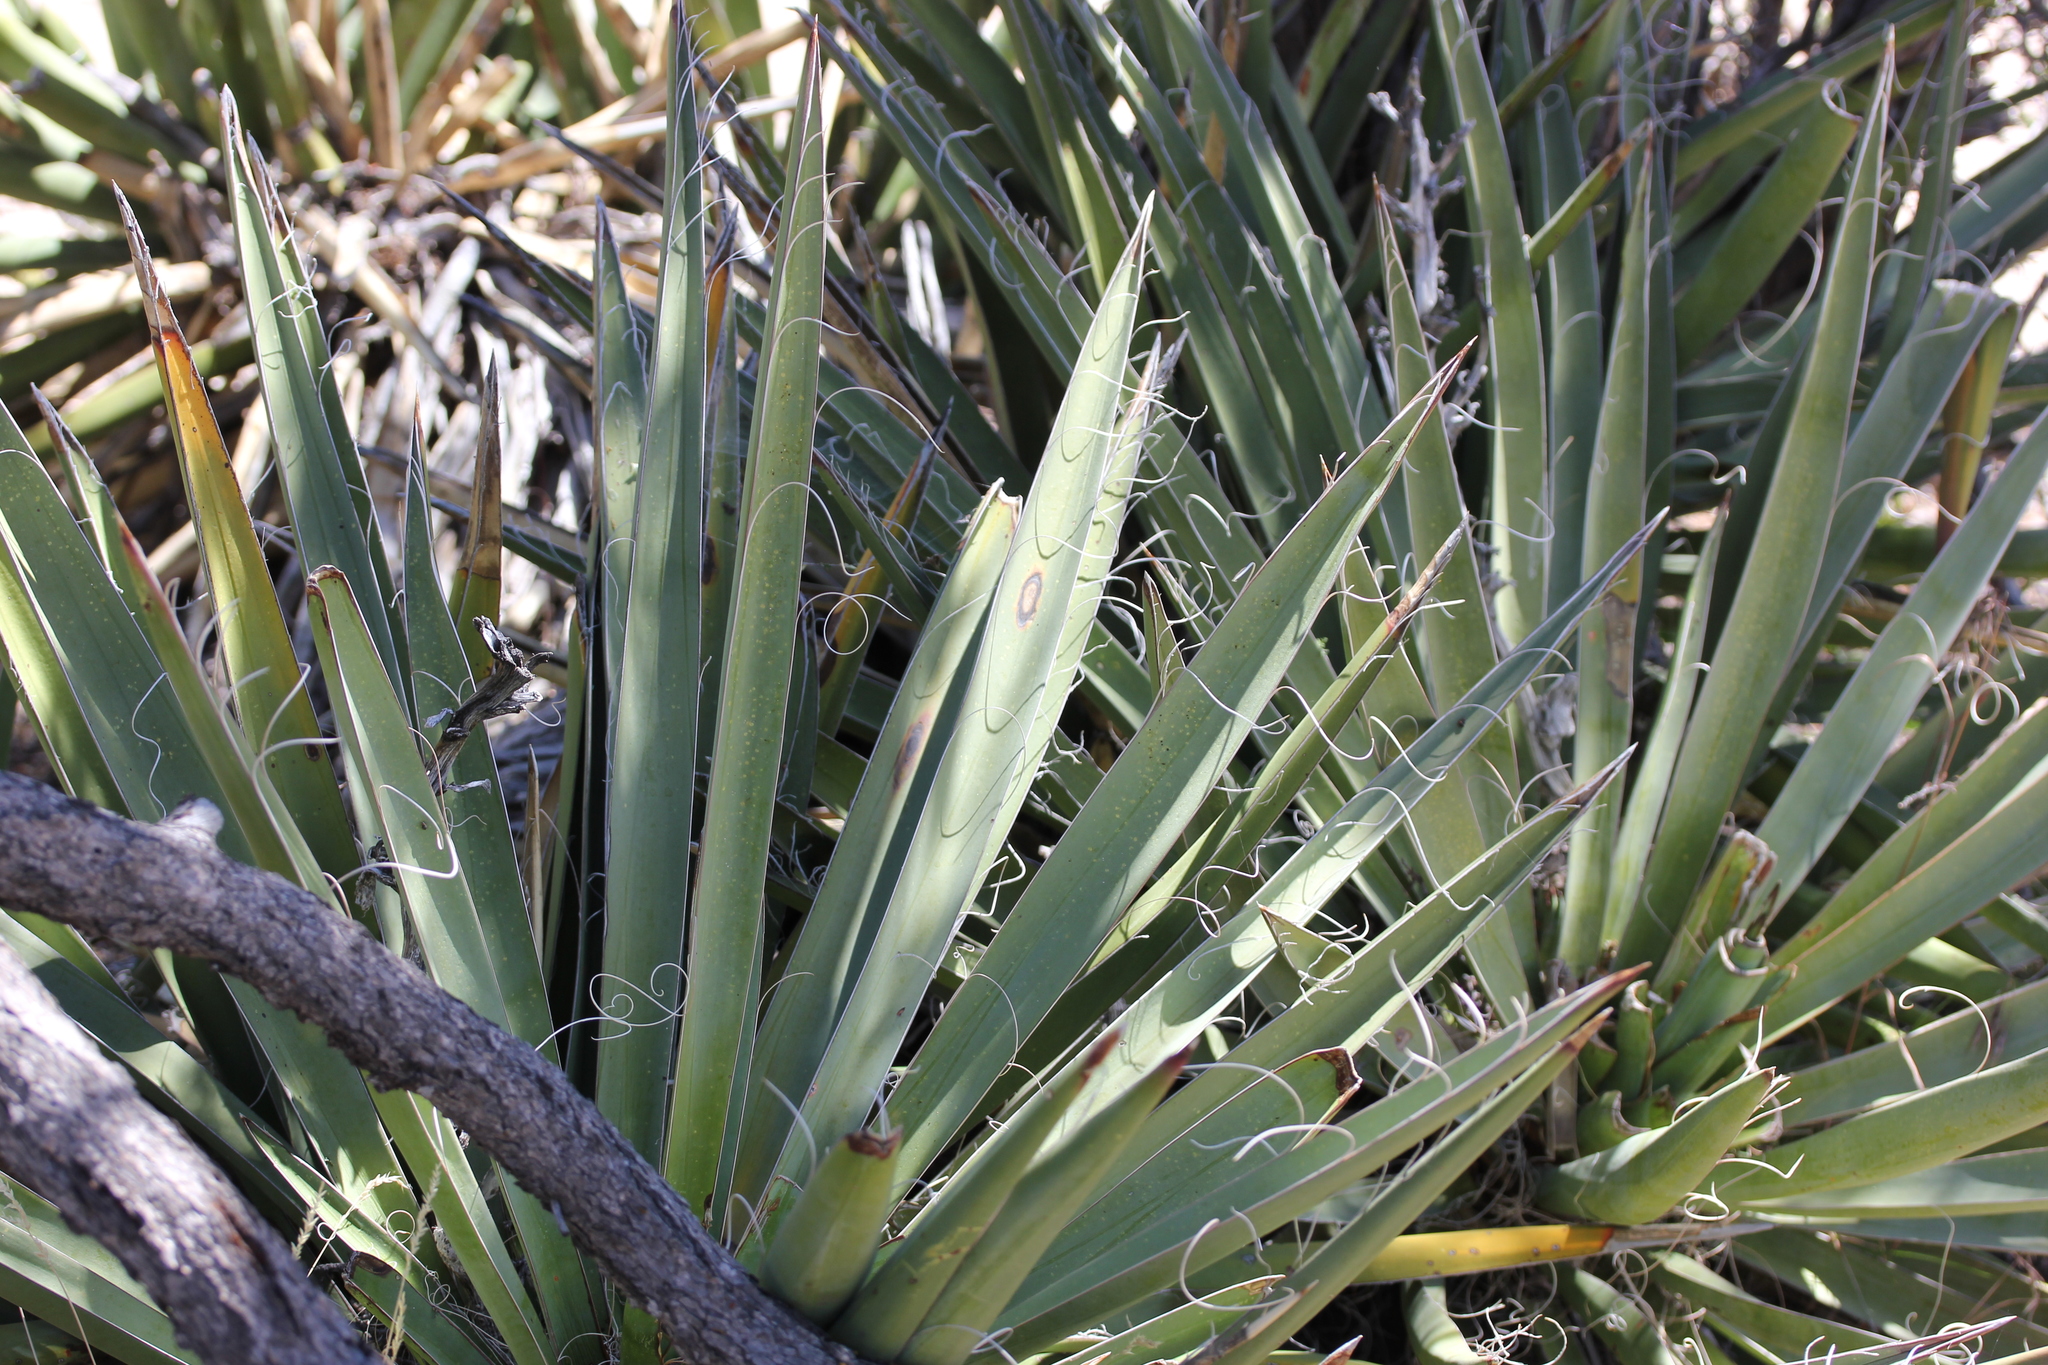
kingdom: Plantae
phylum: Tracheophyta
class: Liliopsida
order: Asparagales
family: Asparagaceae
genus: Yucca
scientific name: Yucca baccata
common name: Banana yucca
